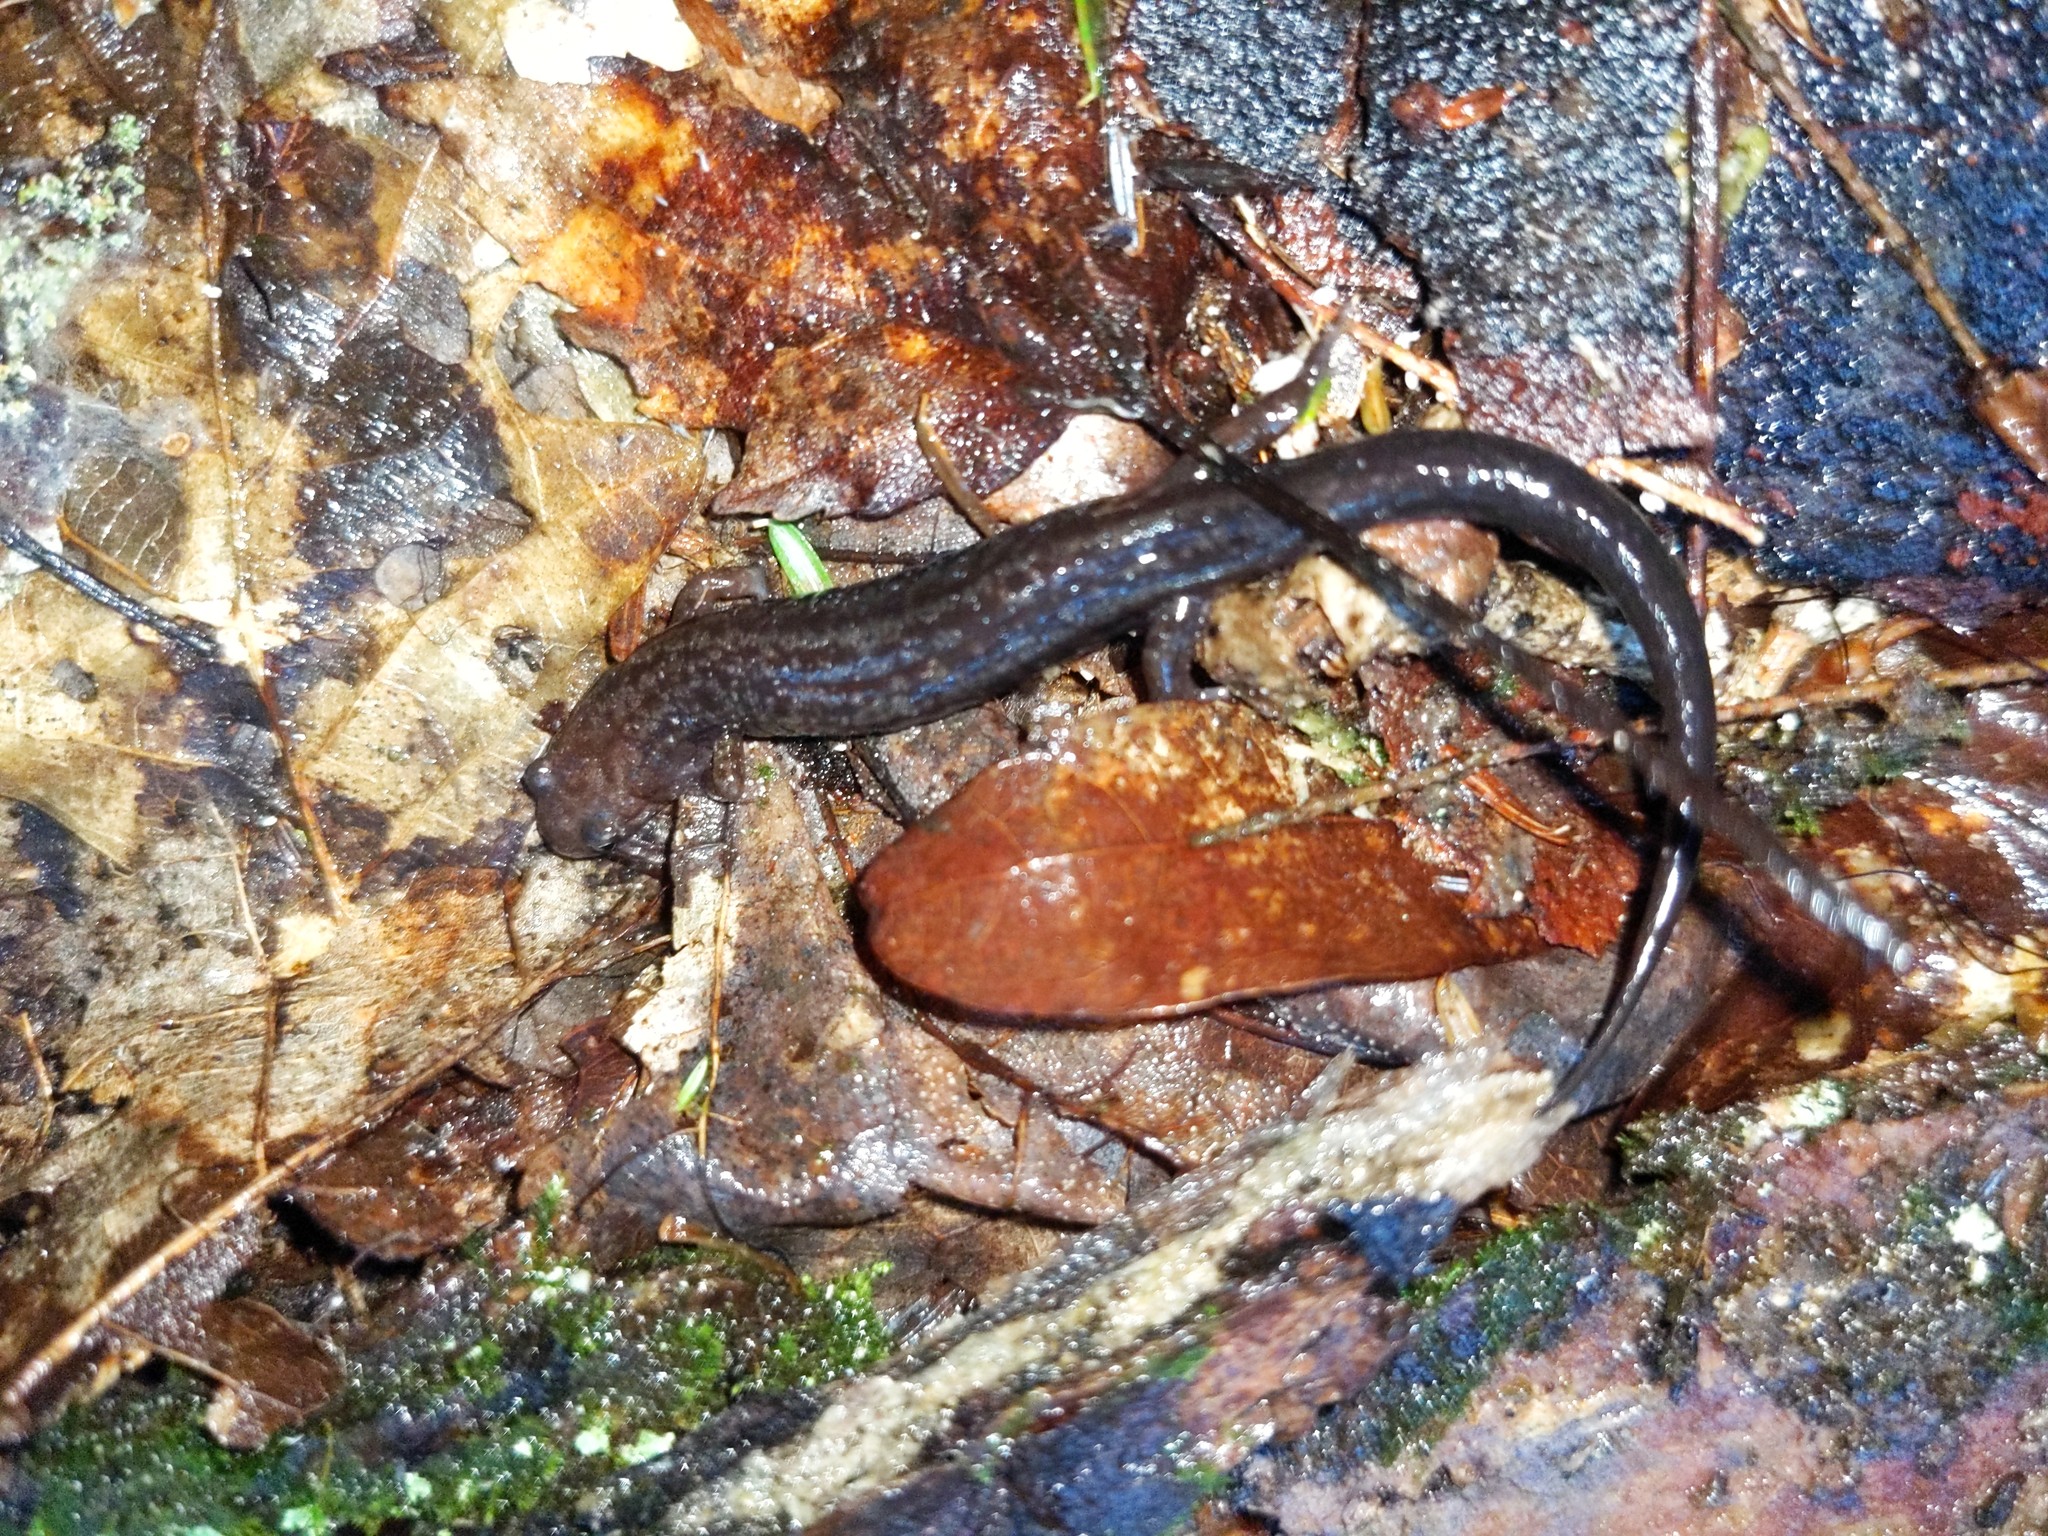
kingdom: Animalia
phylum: Chordata
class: Amphibia
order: Caudata
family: Plethodontidae
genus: Desmognathus
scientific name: Desmognathus ochrophaeus
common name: Allegheny mountain dusky salamander
